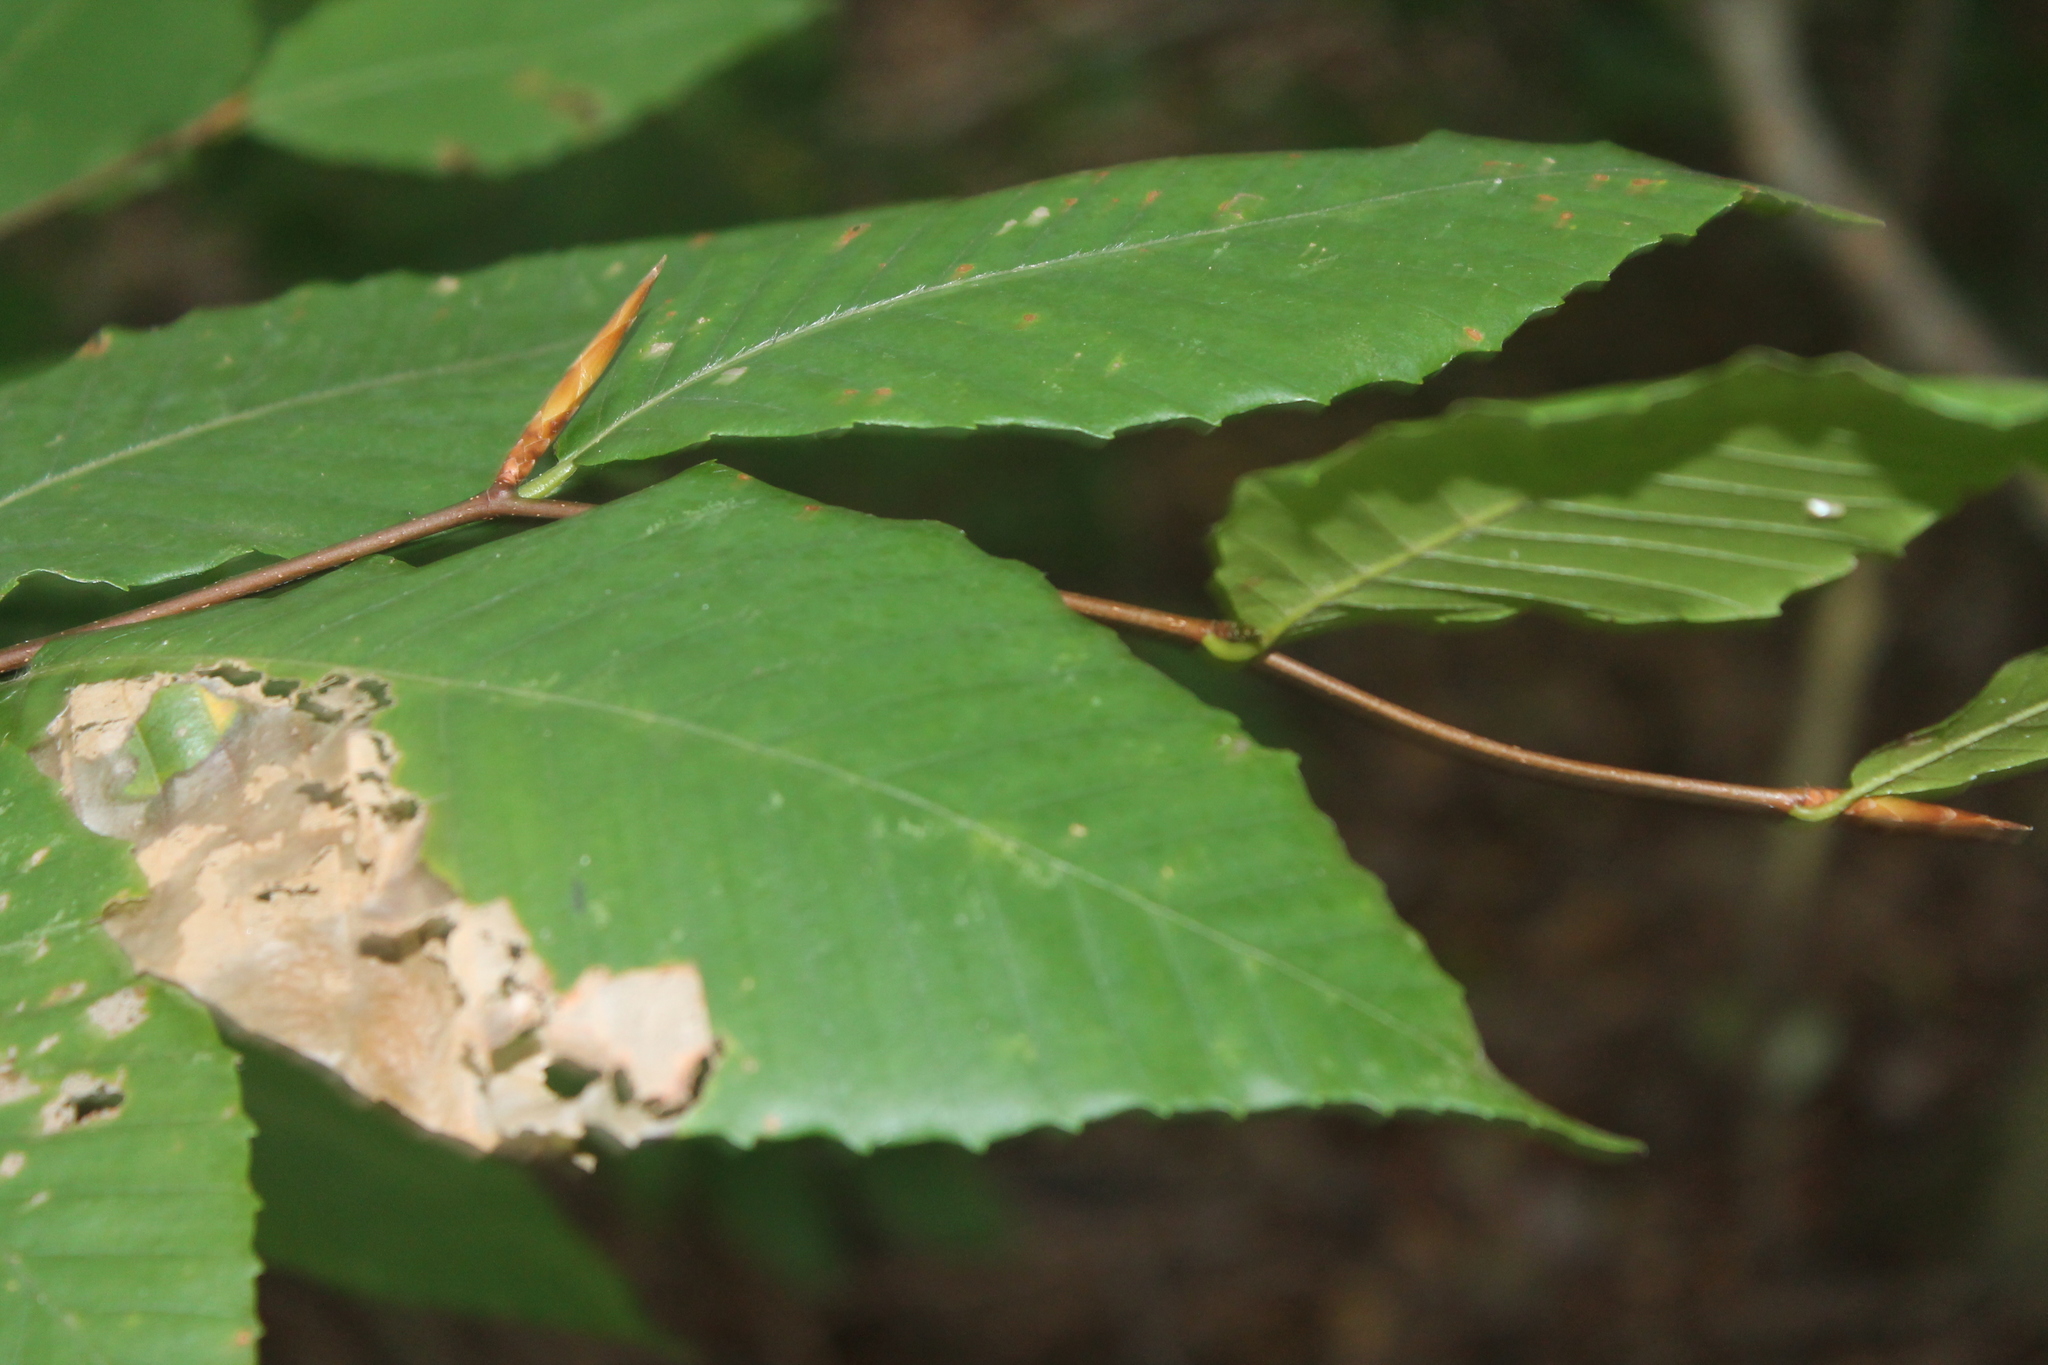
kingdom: Plantae
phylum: Tracheophyta
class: Magnoliopsida
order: Fagales
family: Fagaceae
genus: Fagus
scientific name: Fagus grandifolia
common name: American beech
